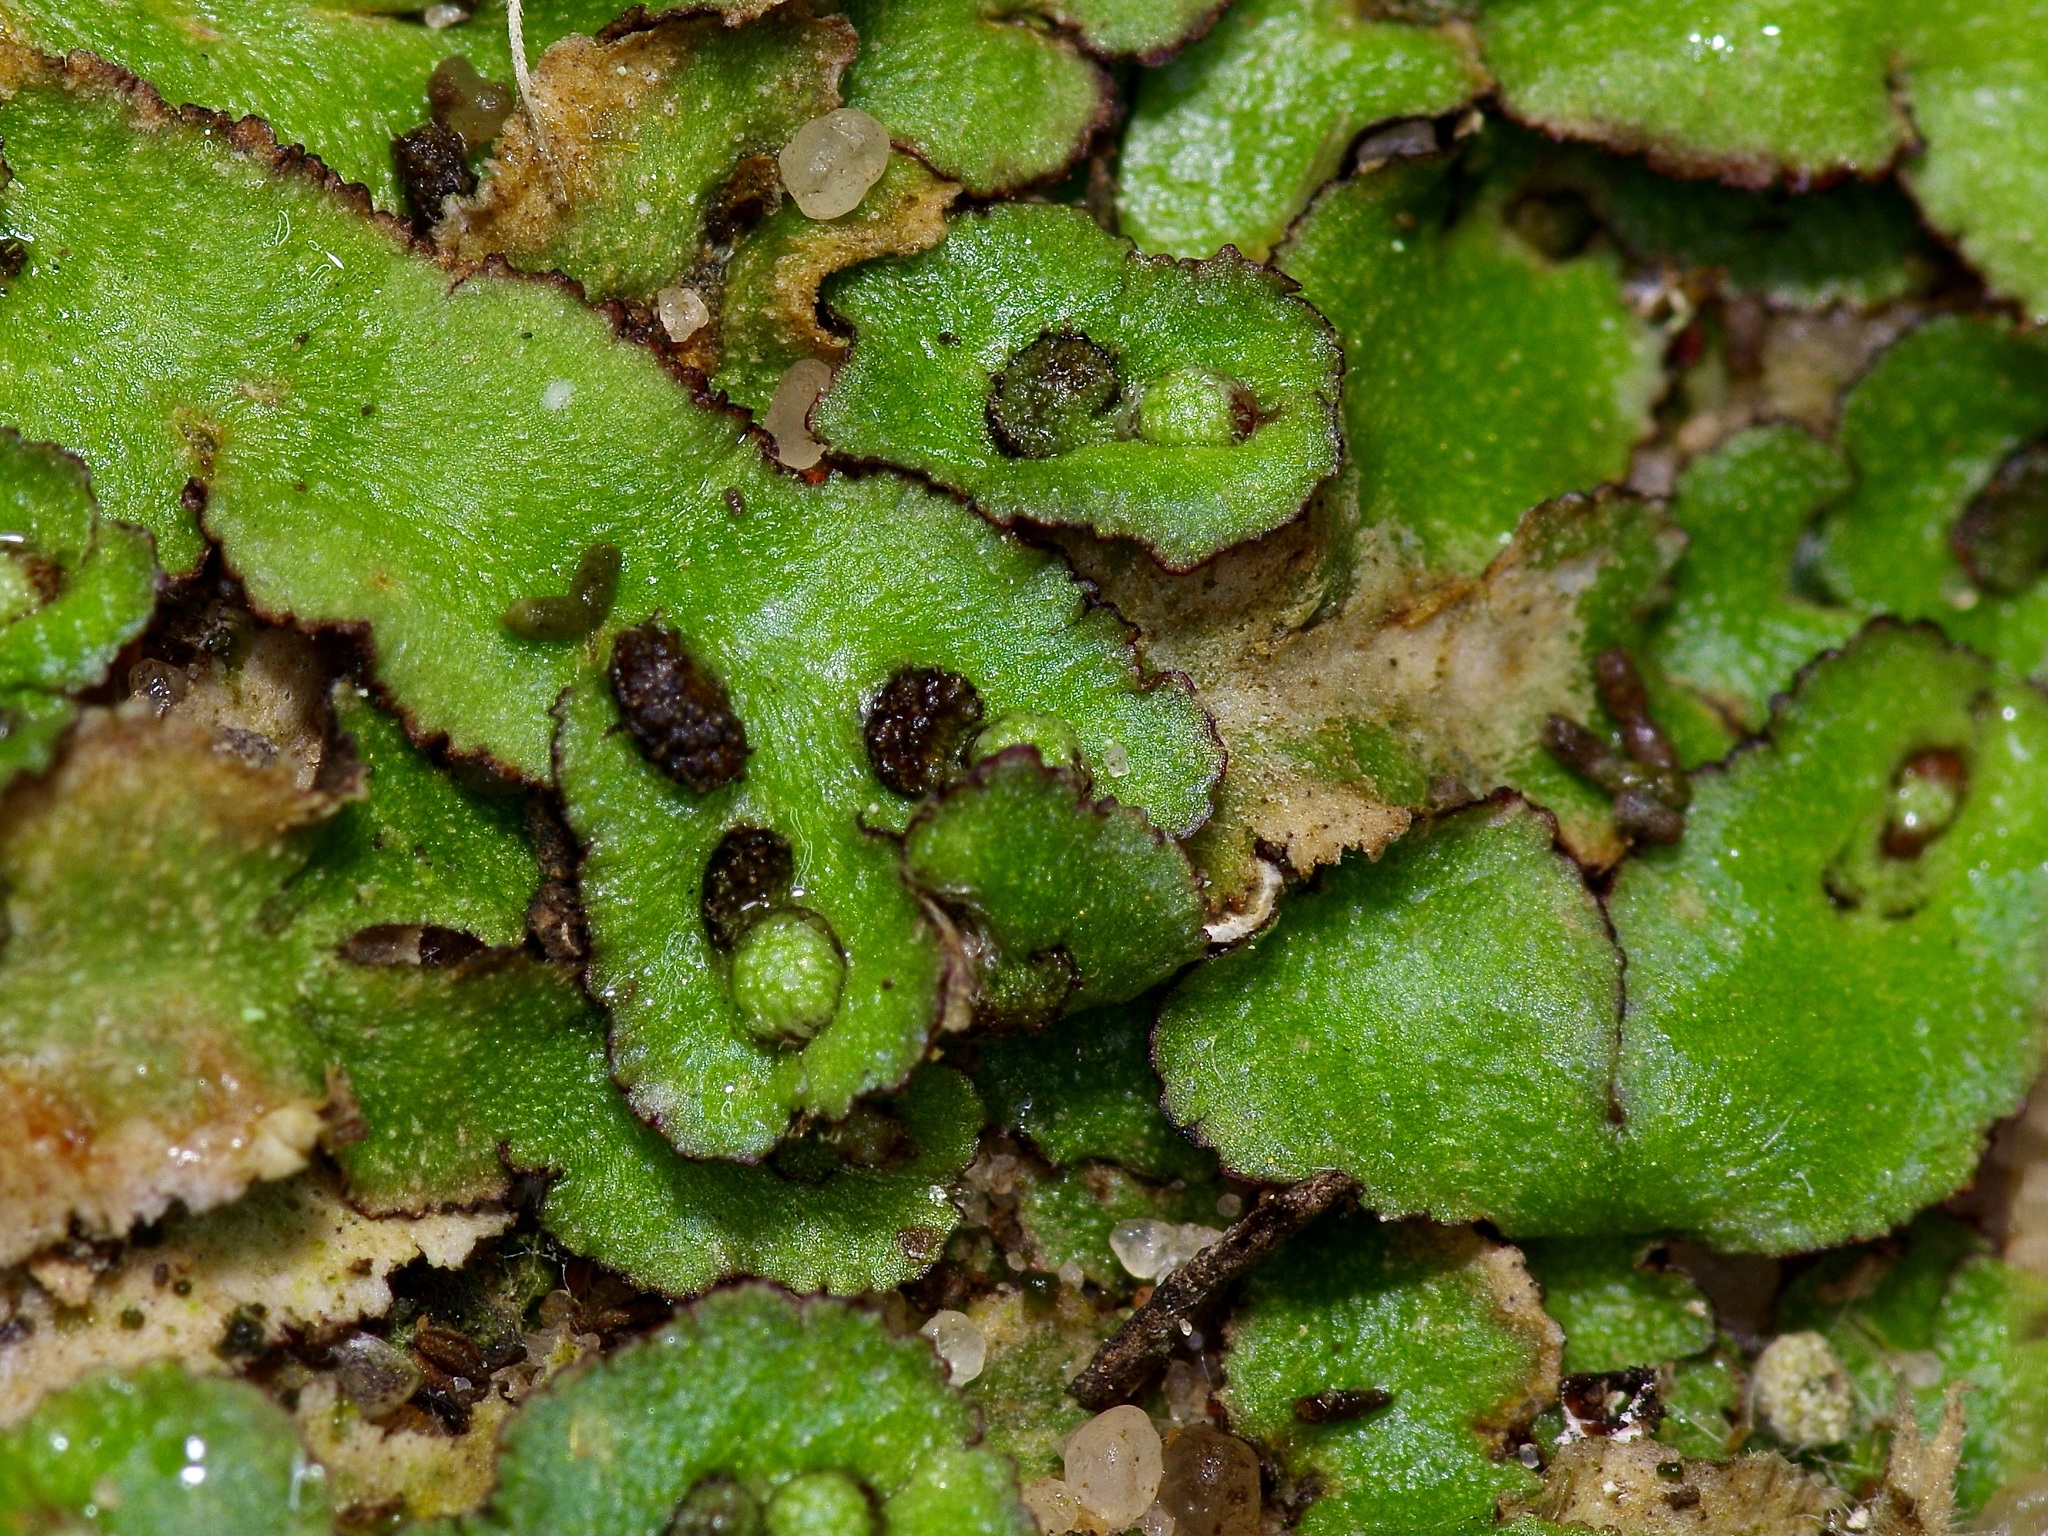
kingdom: Plantae
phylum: Marchantiophyta
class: Marchantiopsida
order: Marchantiales
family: Aytoniaceae
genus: Reboulia
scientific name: Reboulia hemisphaerica
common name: Purple-margined liverwort
